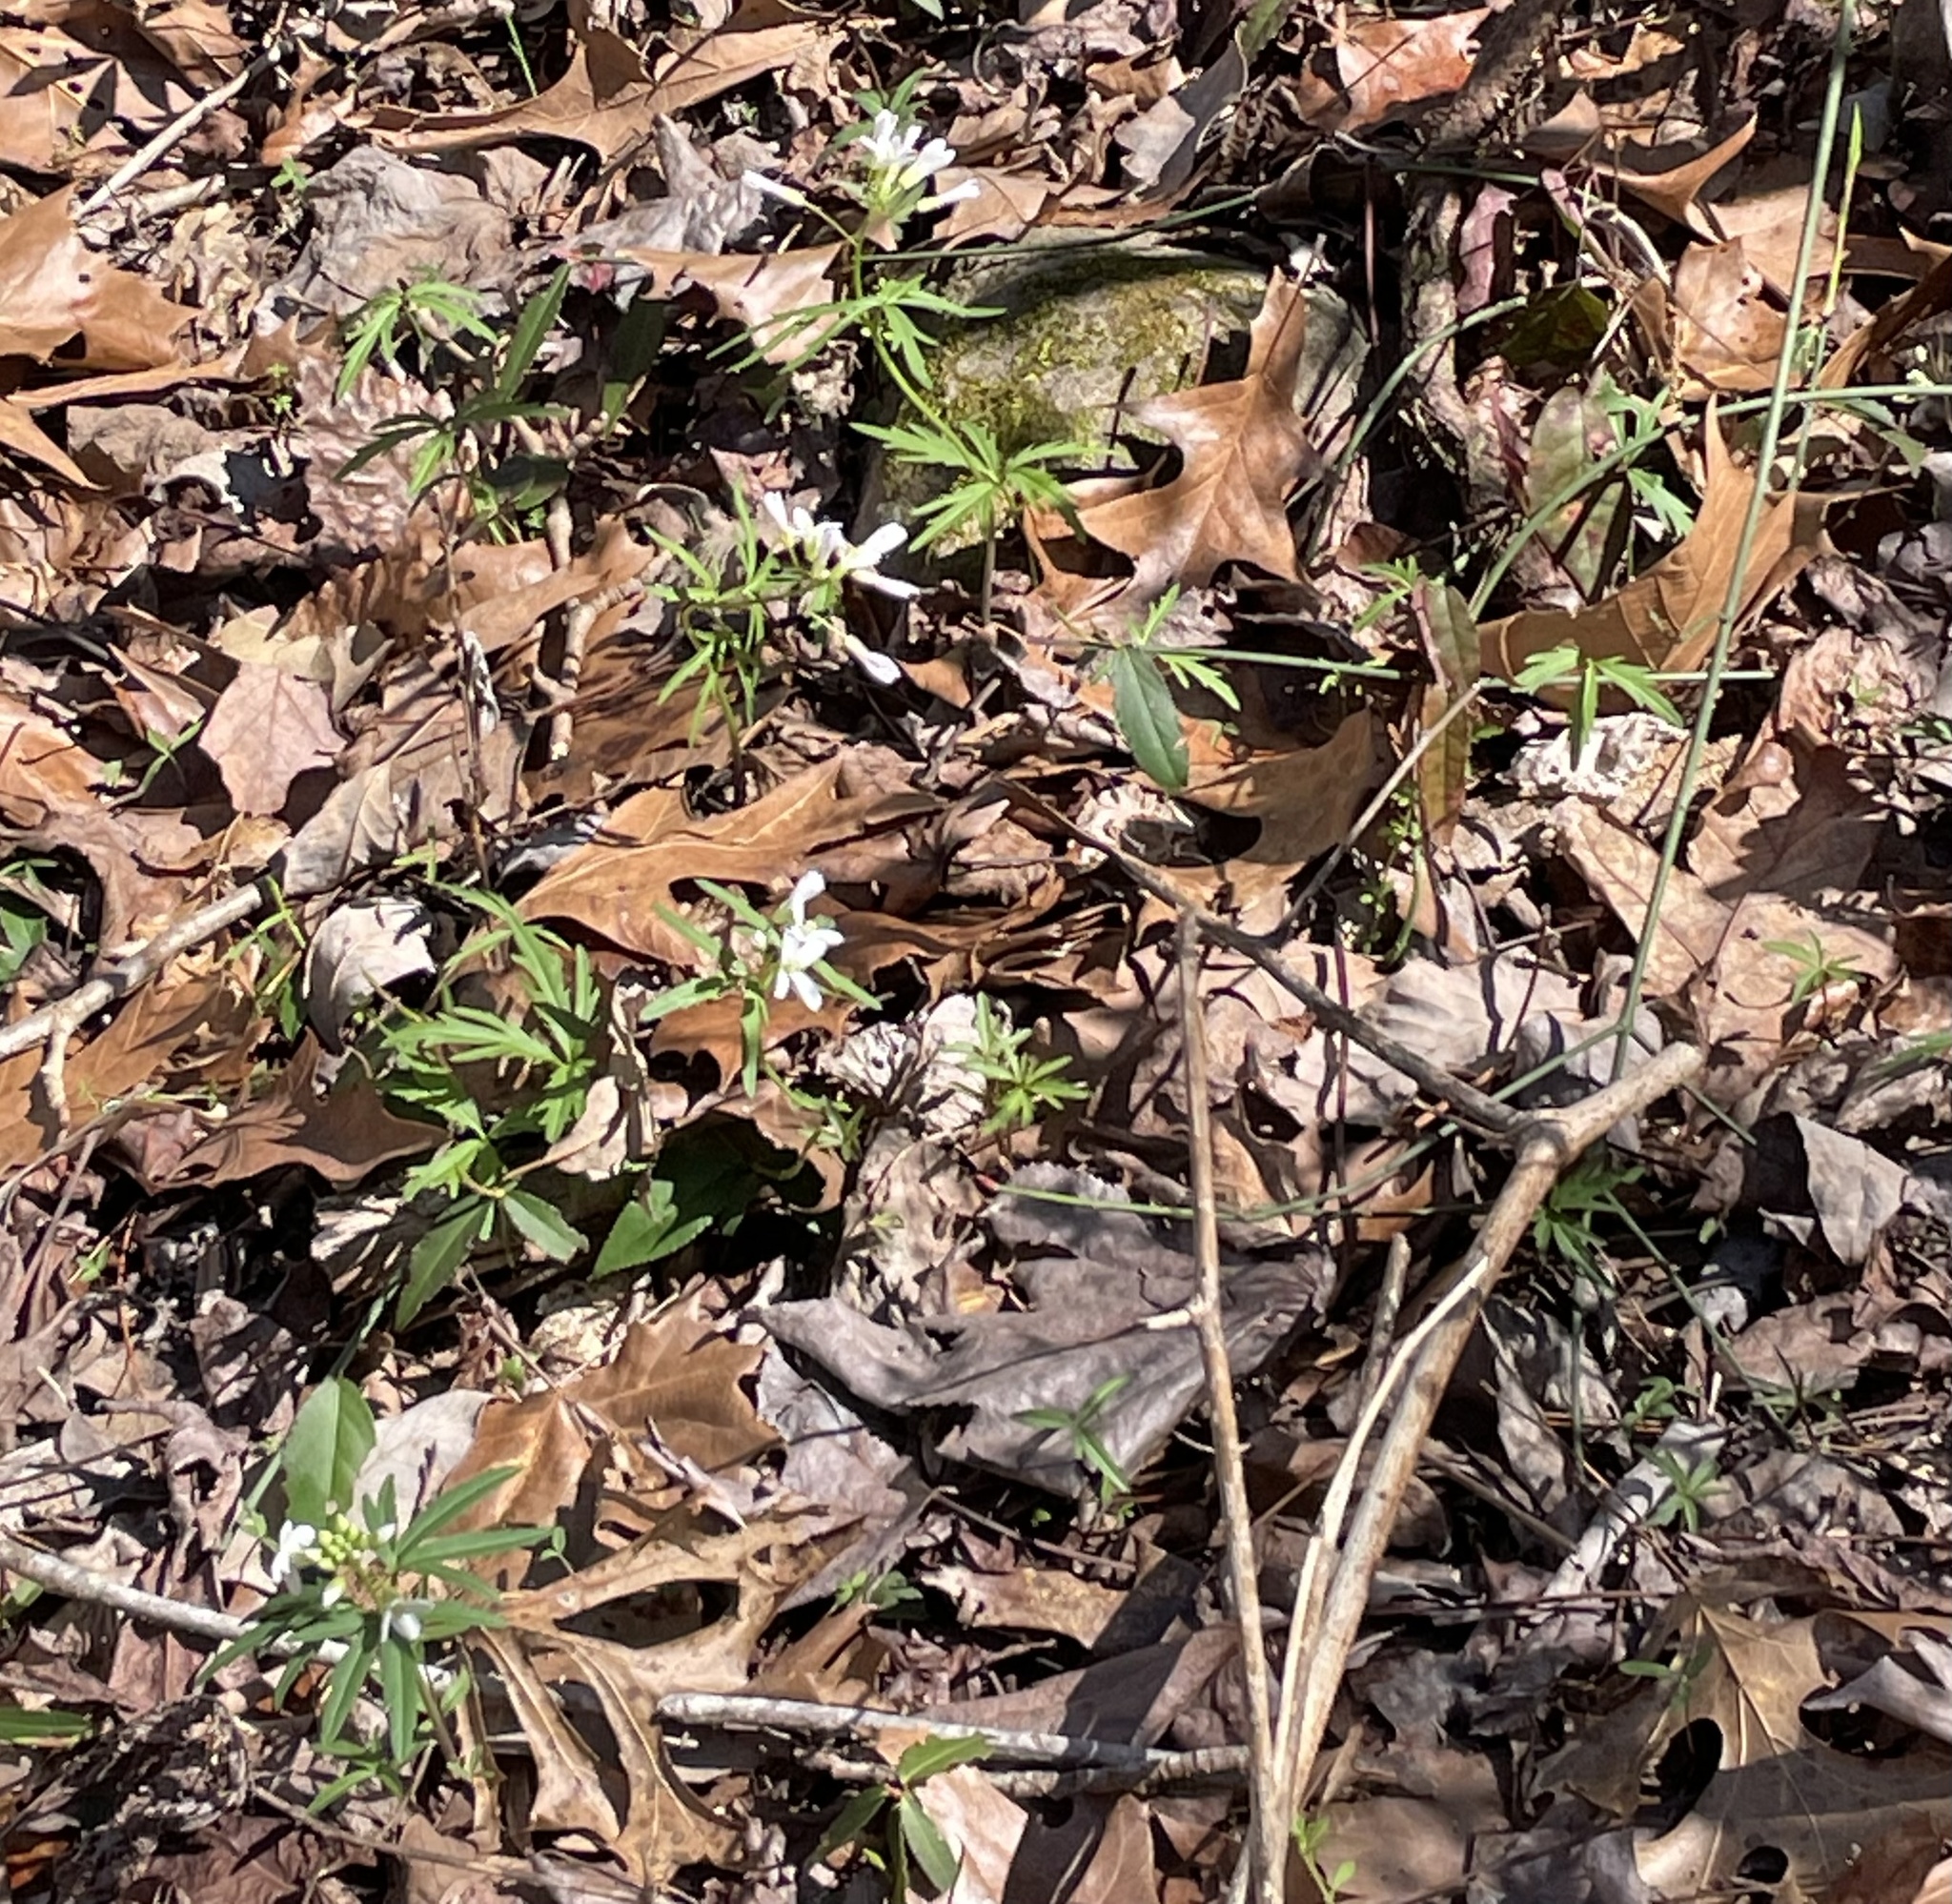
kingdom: Plantae
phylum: Tracheophyta
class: Magnoliopsida
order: Brassicales
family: Brassicaceae
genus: Cardamine
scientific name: Cardamine concatenata
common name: Cut-leaf toothcup
